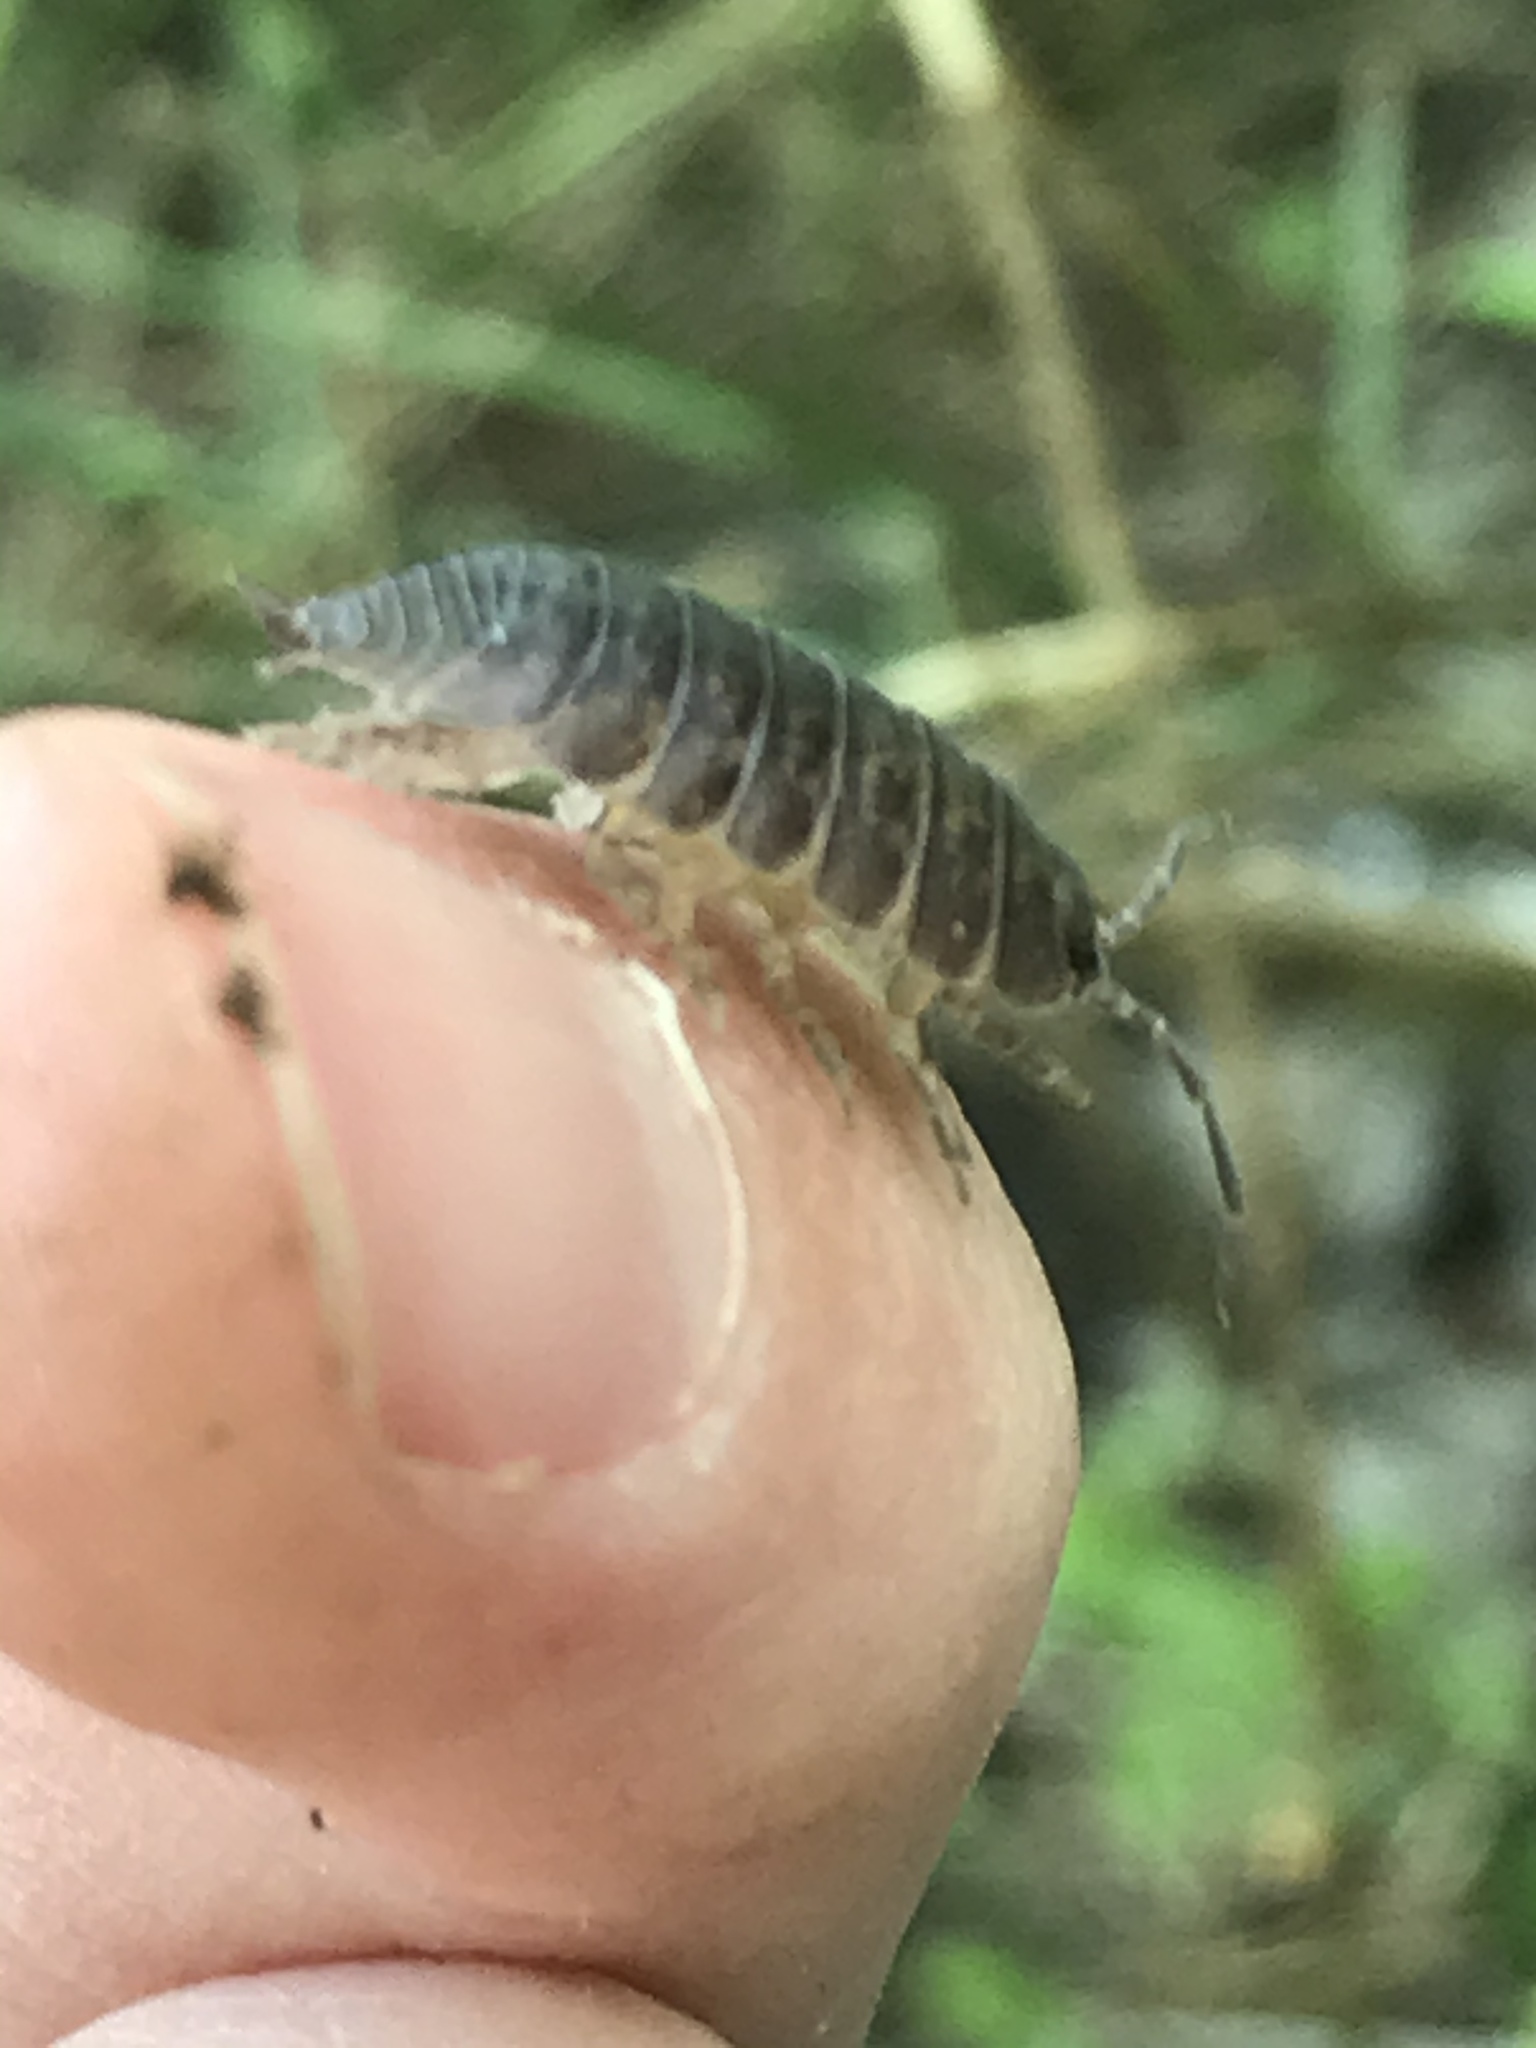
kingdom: Animalia
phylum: Arthropoda
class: Malacostraca
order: Isopoda
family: Porcellionidae
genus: Porcellio
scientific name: Porcellio laevis
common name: Swift woodlouse
